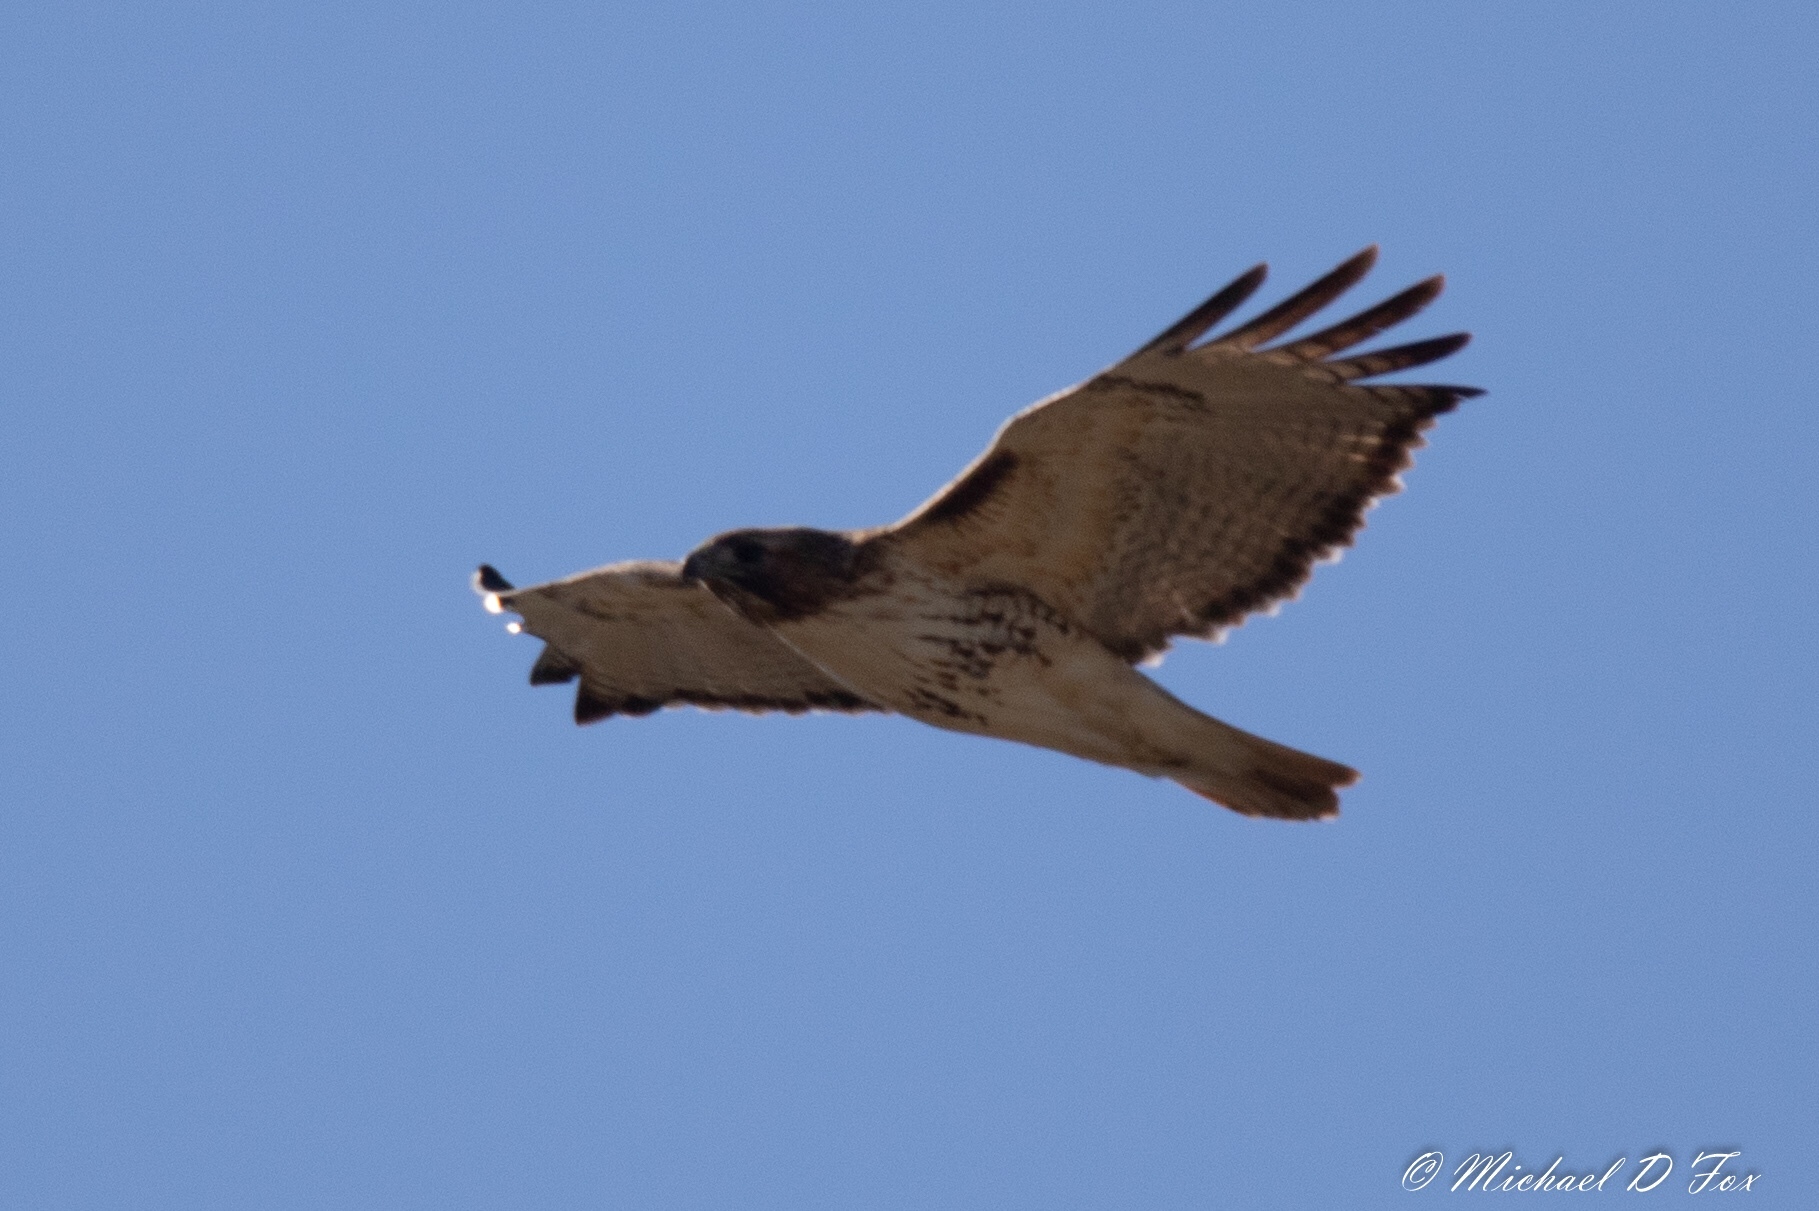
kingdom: Animalia
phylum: Chordata
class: Aves
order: Accipitriformes
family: Accipitridae
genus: Buteo
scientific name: Buteo jamaicensis
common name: Red-tailed hawk
